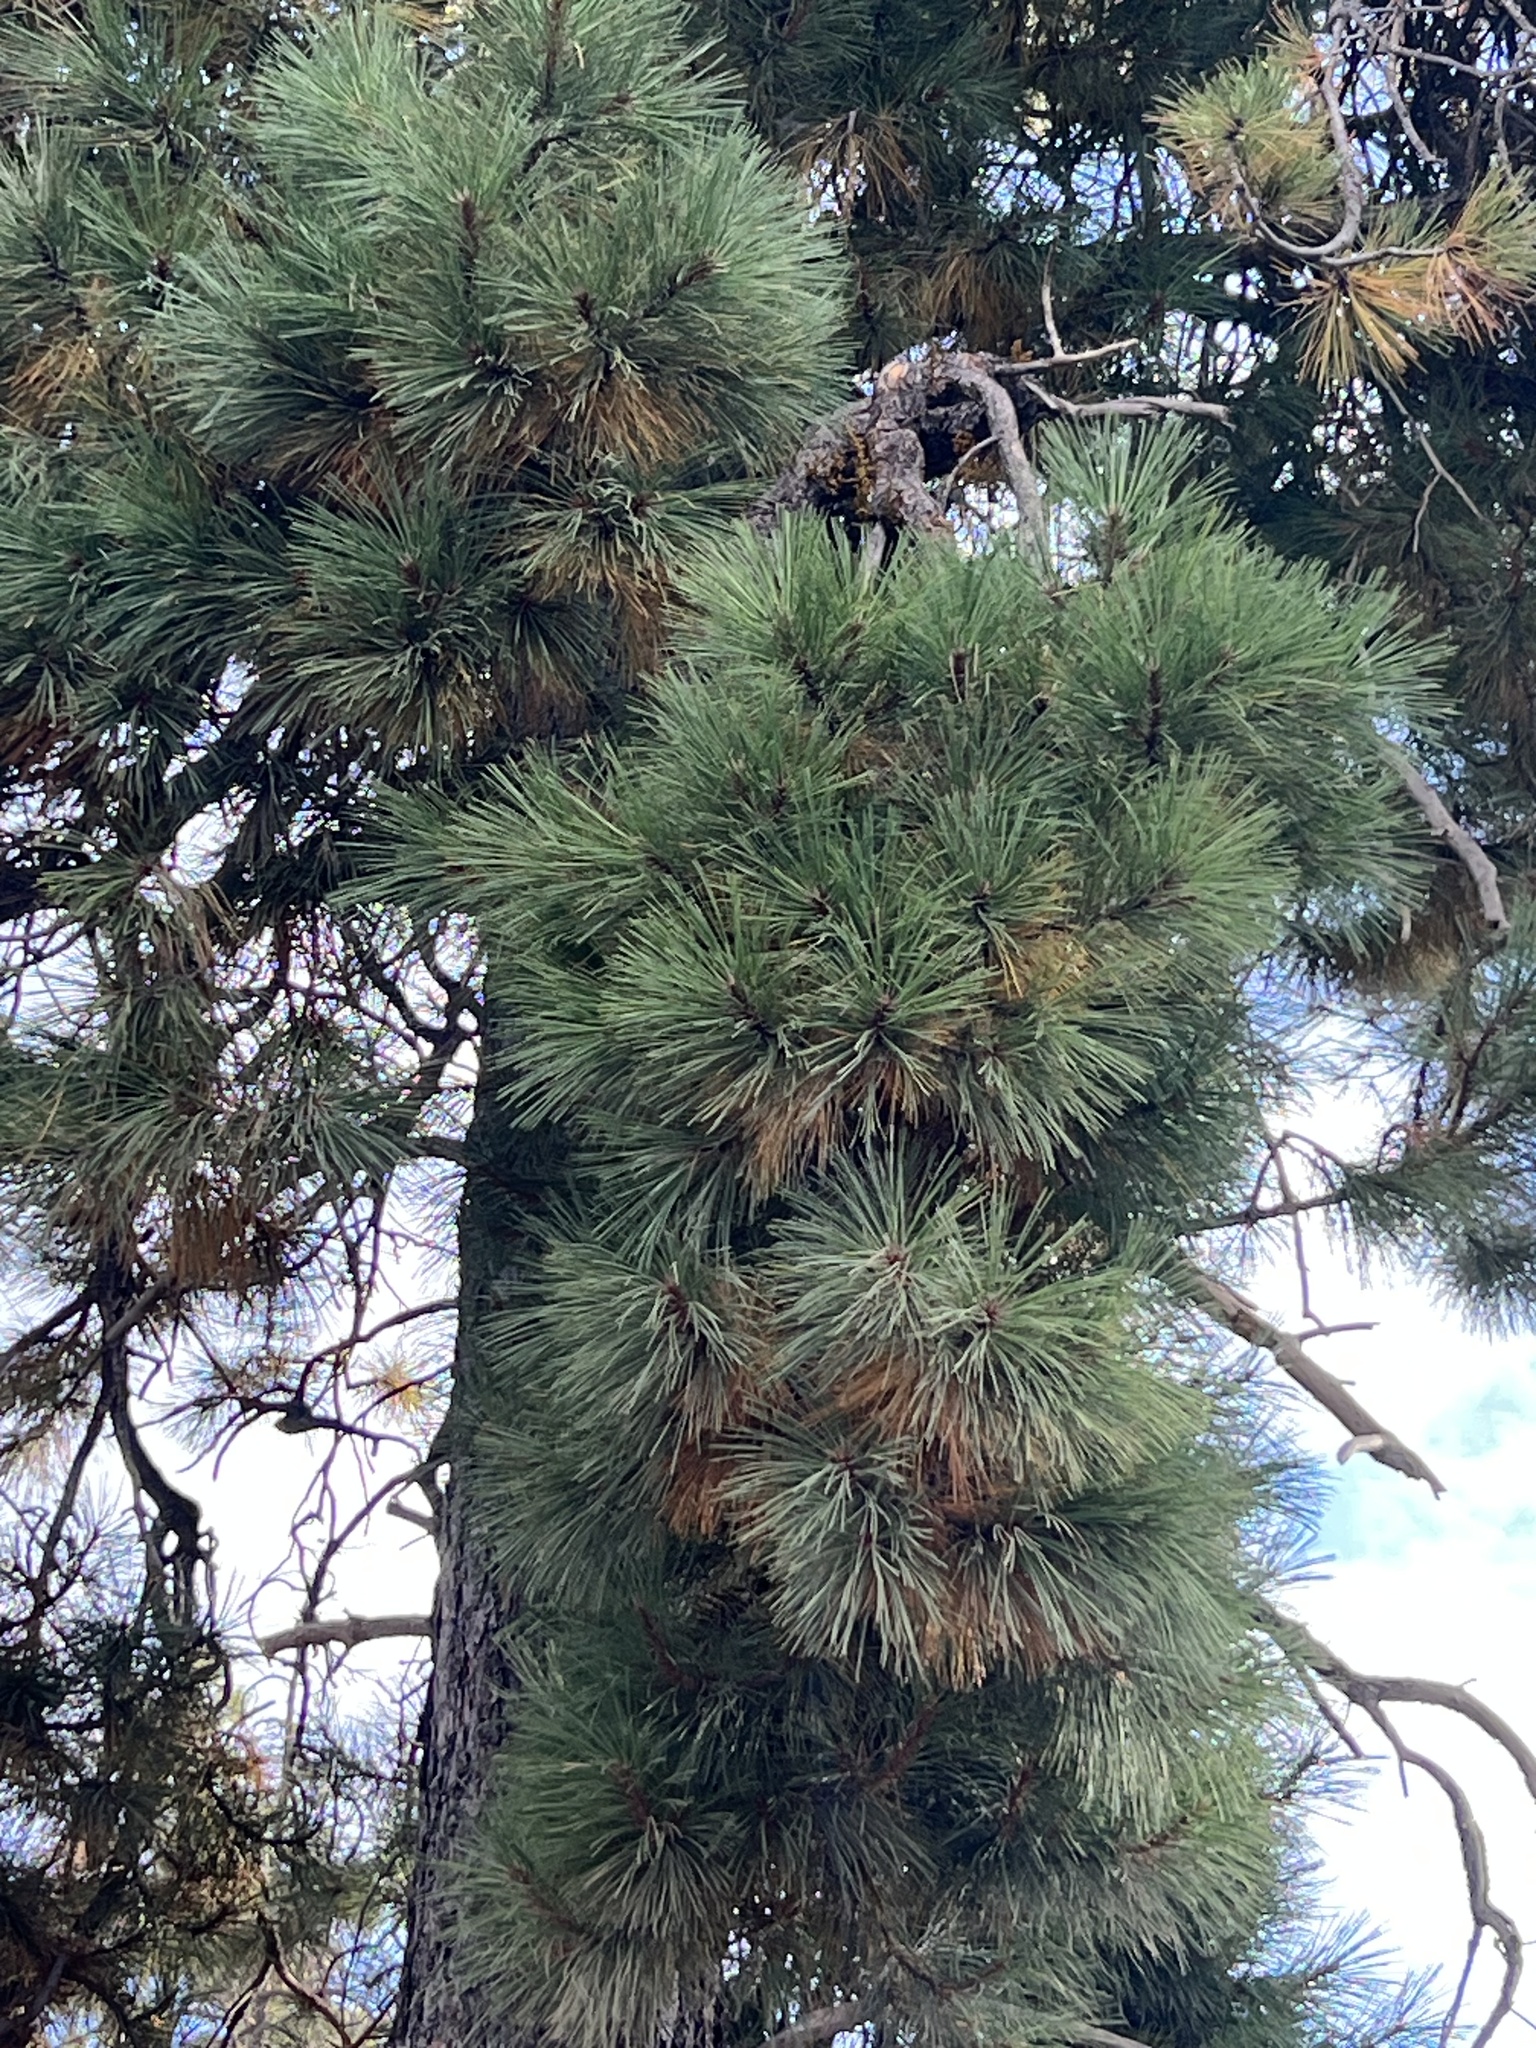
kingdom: Plantae
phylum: Tracheophyta
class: Pinopsida
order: Pinales
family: Pinaceae
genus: Pinus
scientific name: Pinus ponderosa
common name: Western yellow-pine
